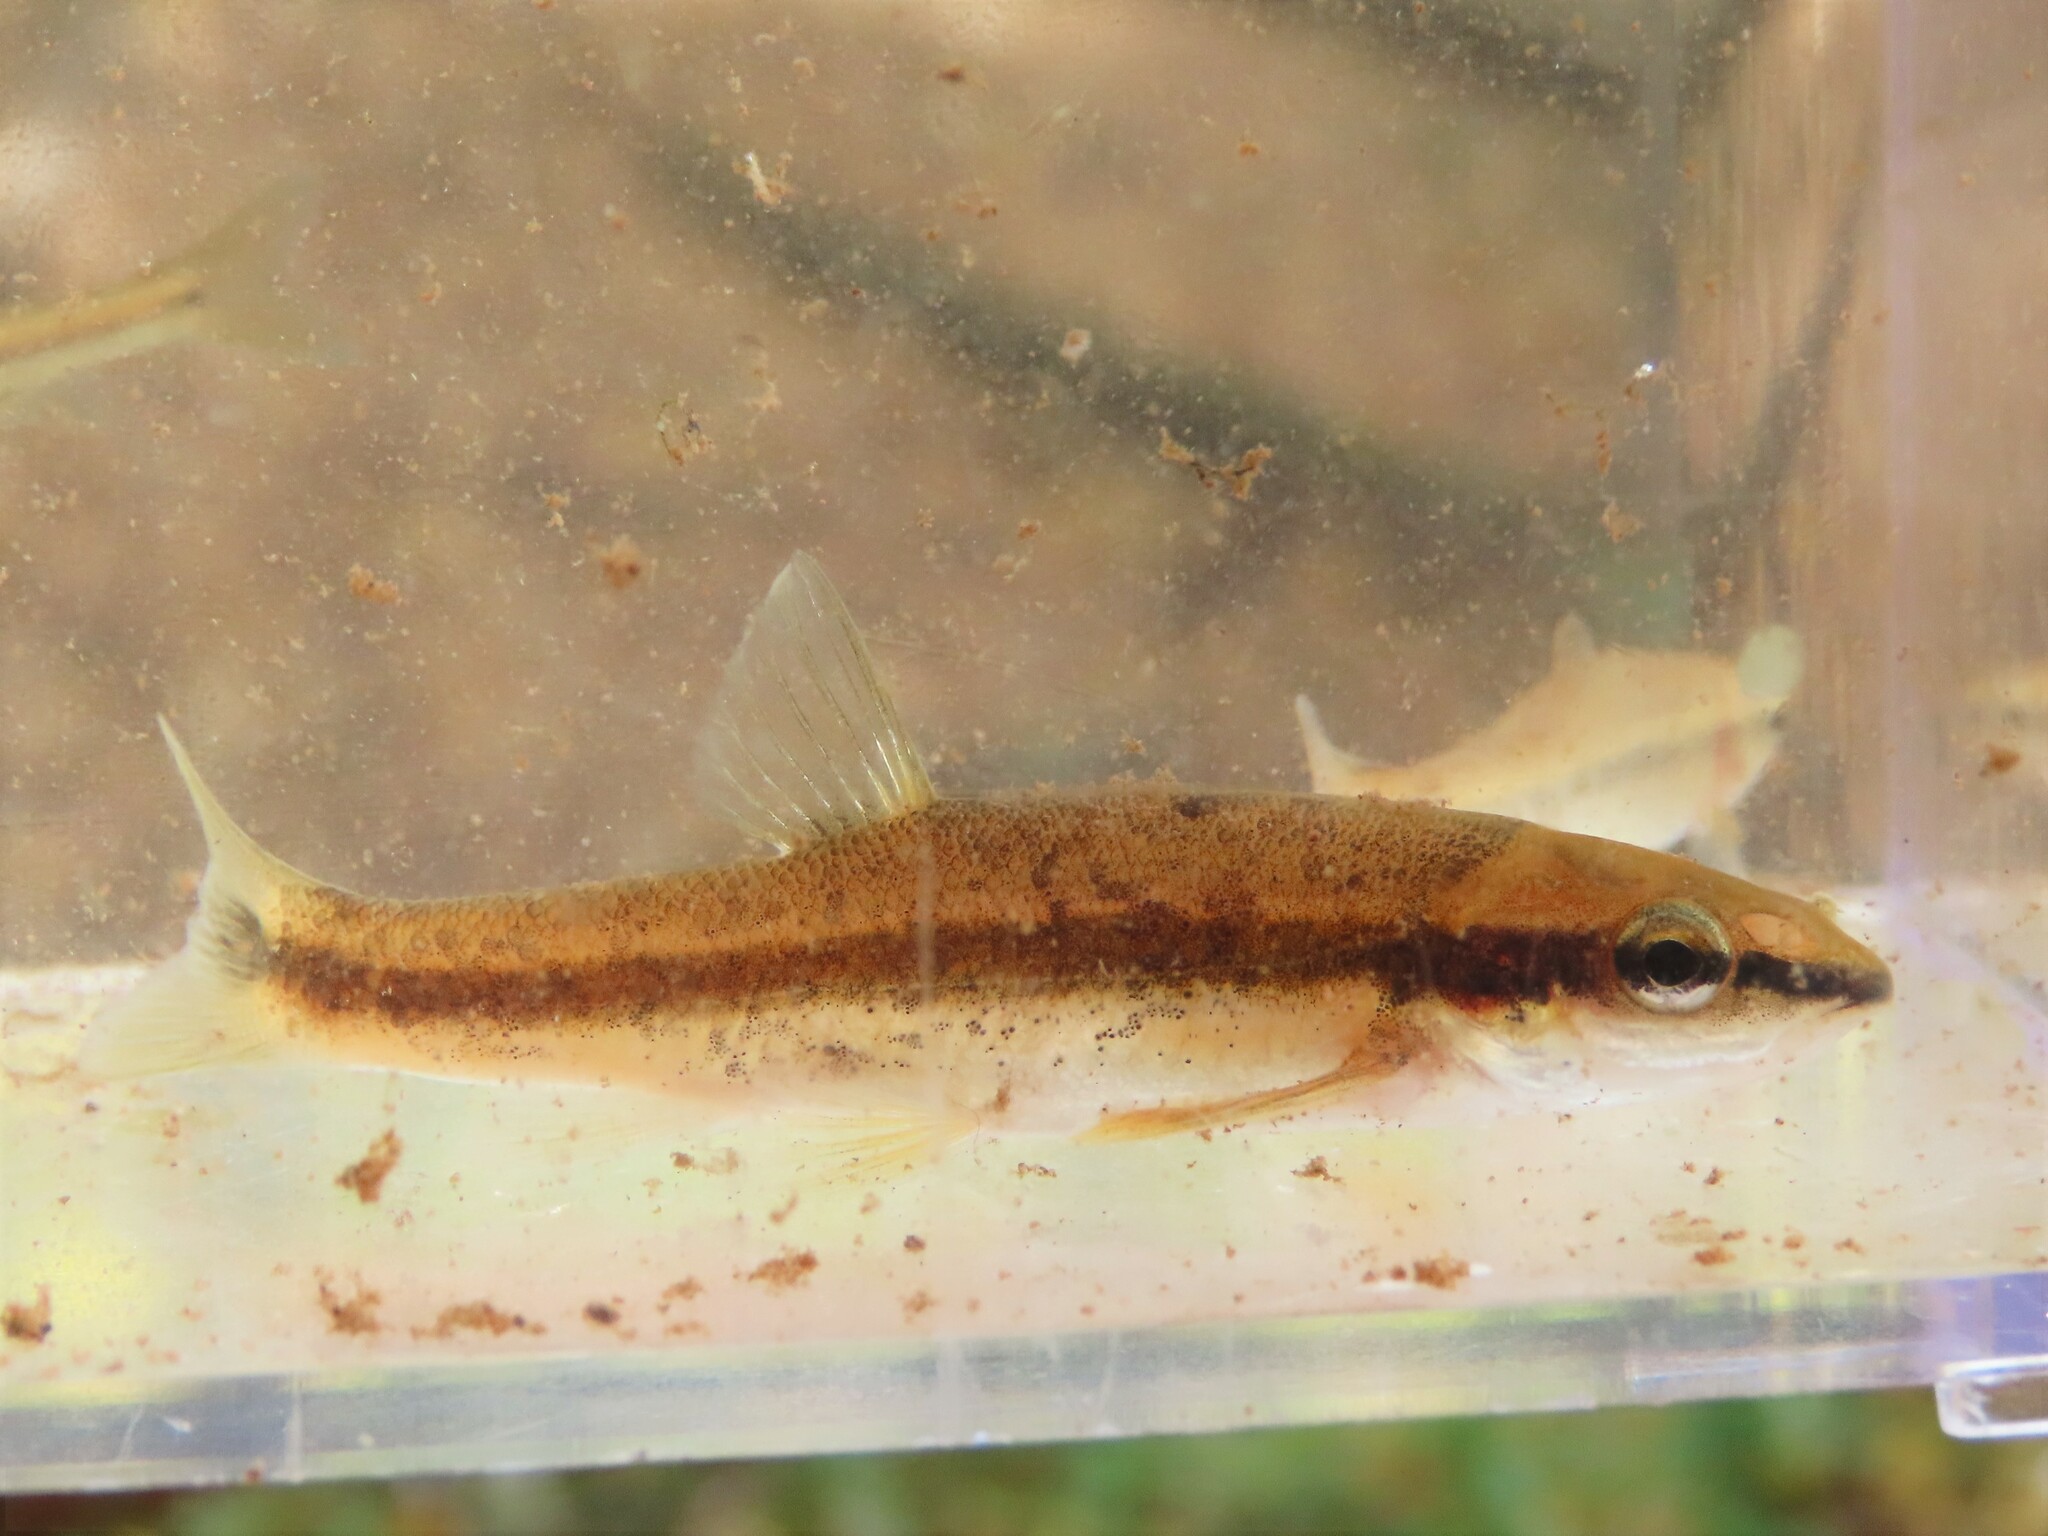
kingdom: Animalia
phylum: Chordata
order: Cypriniformes
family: Cyprinidae
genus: Rhinichthys
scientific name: Rhinichthys atratulus
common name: Eastern blacknose dace
